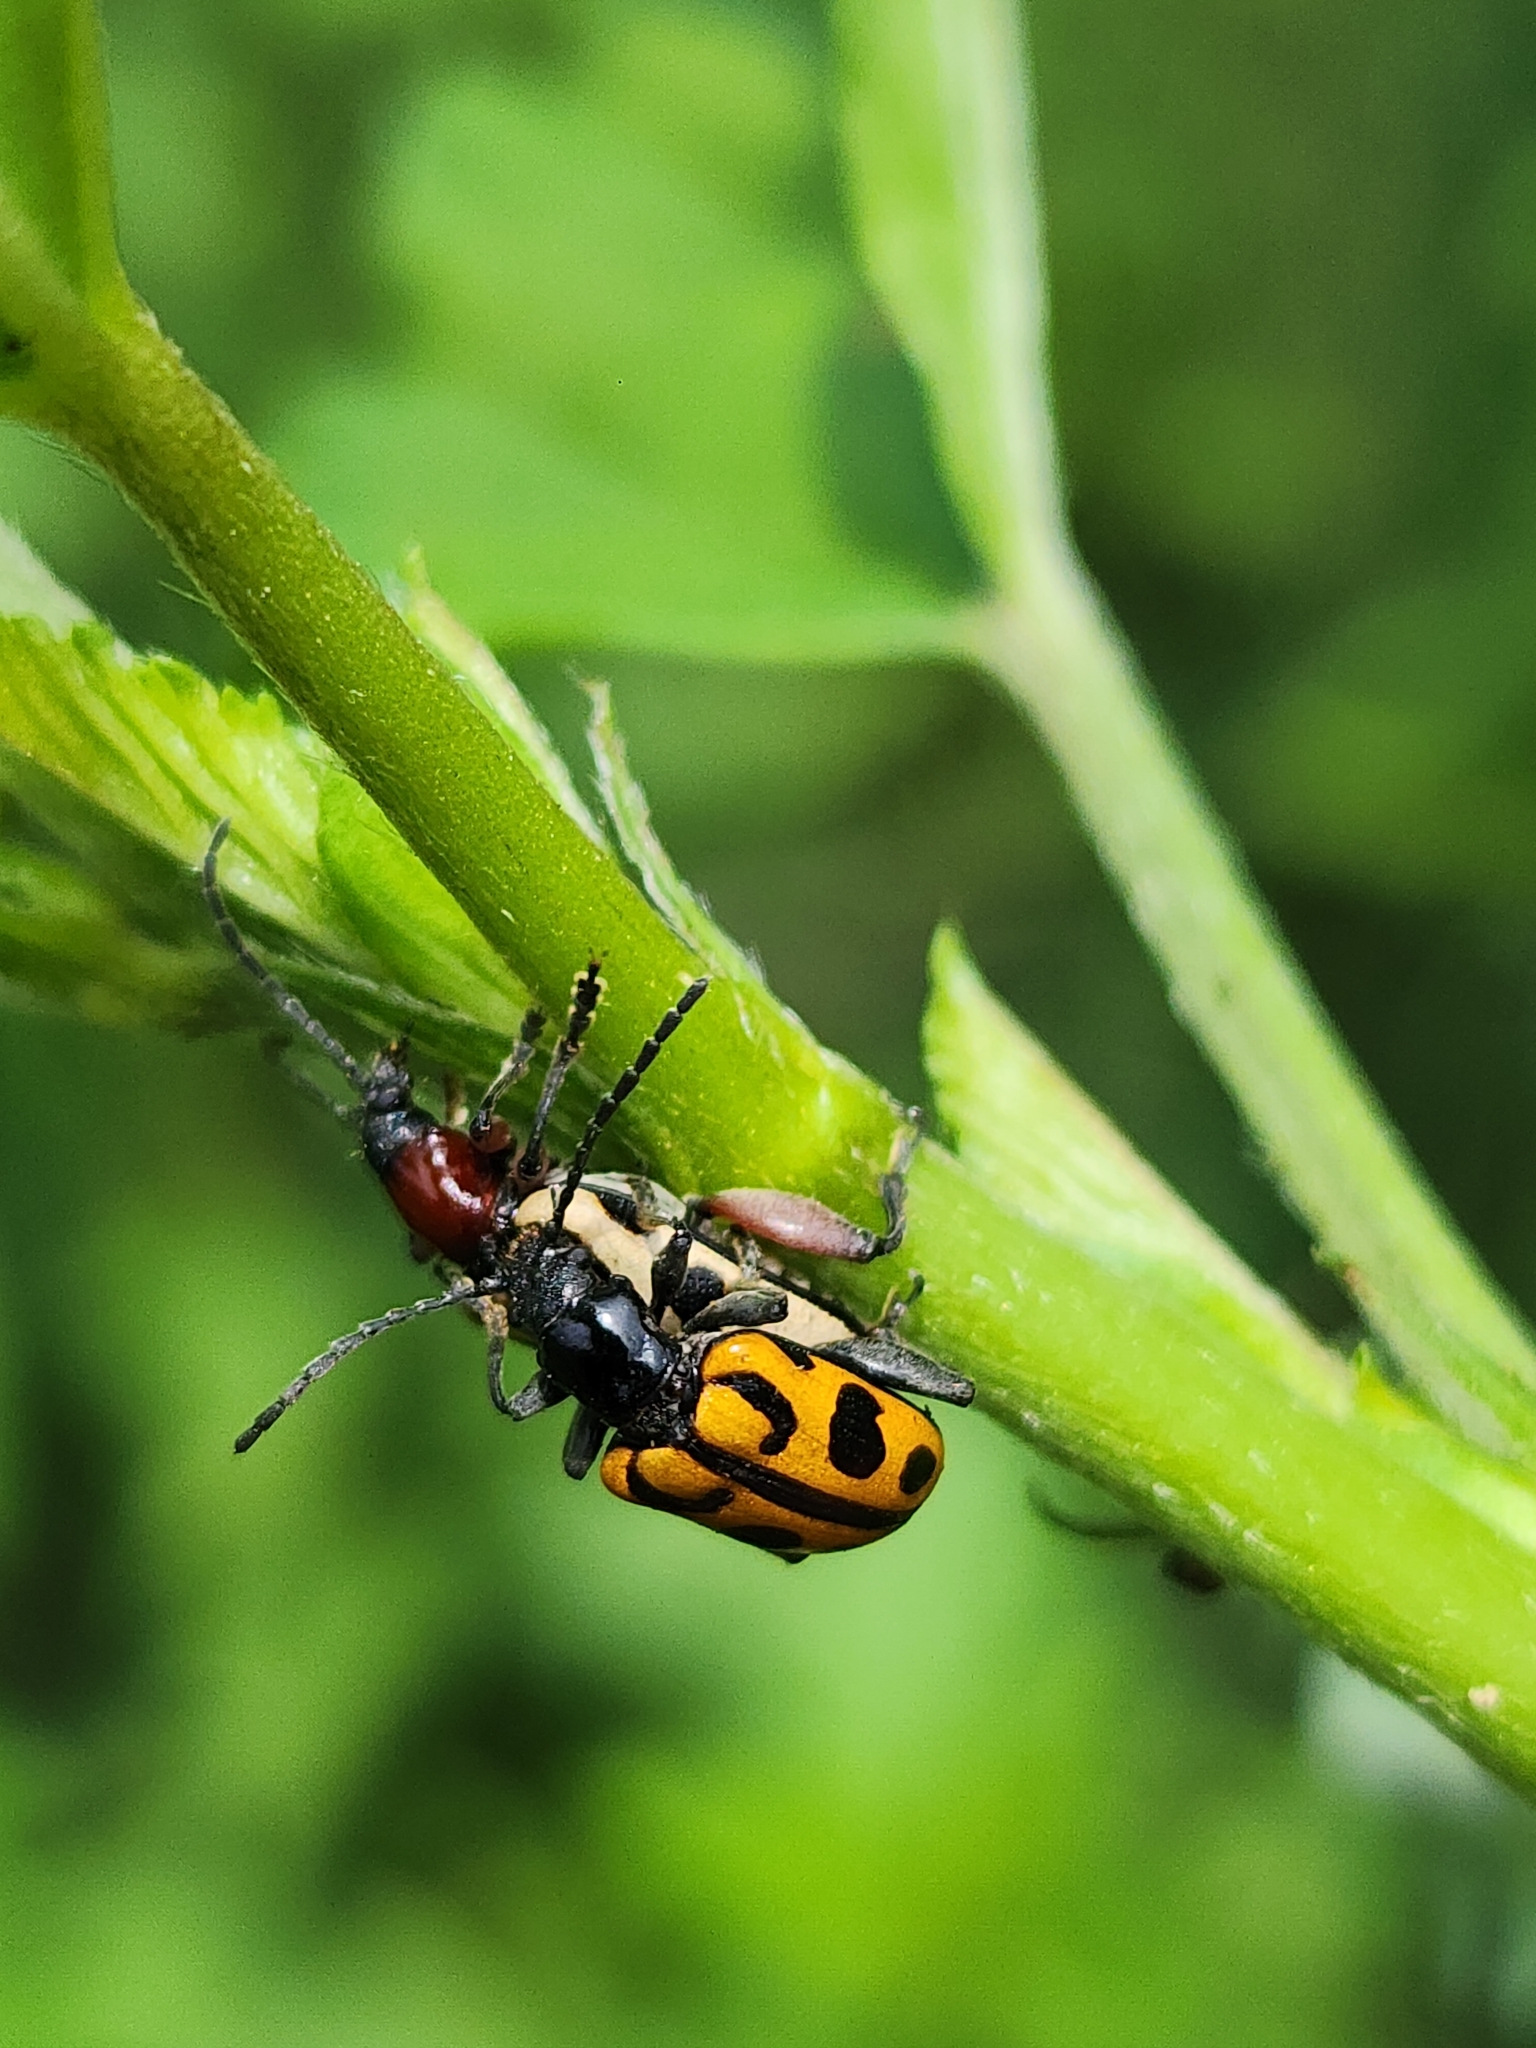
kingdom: Animalia
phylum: Arthropoda
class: Insecta
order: Coleoptera
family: Chrysomelidae
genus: Atalasis
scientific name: Atalasis
